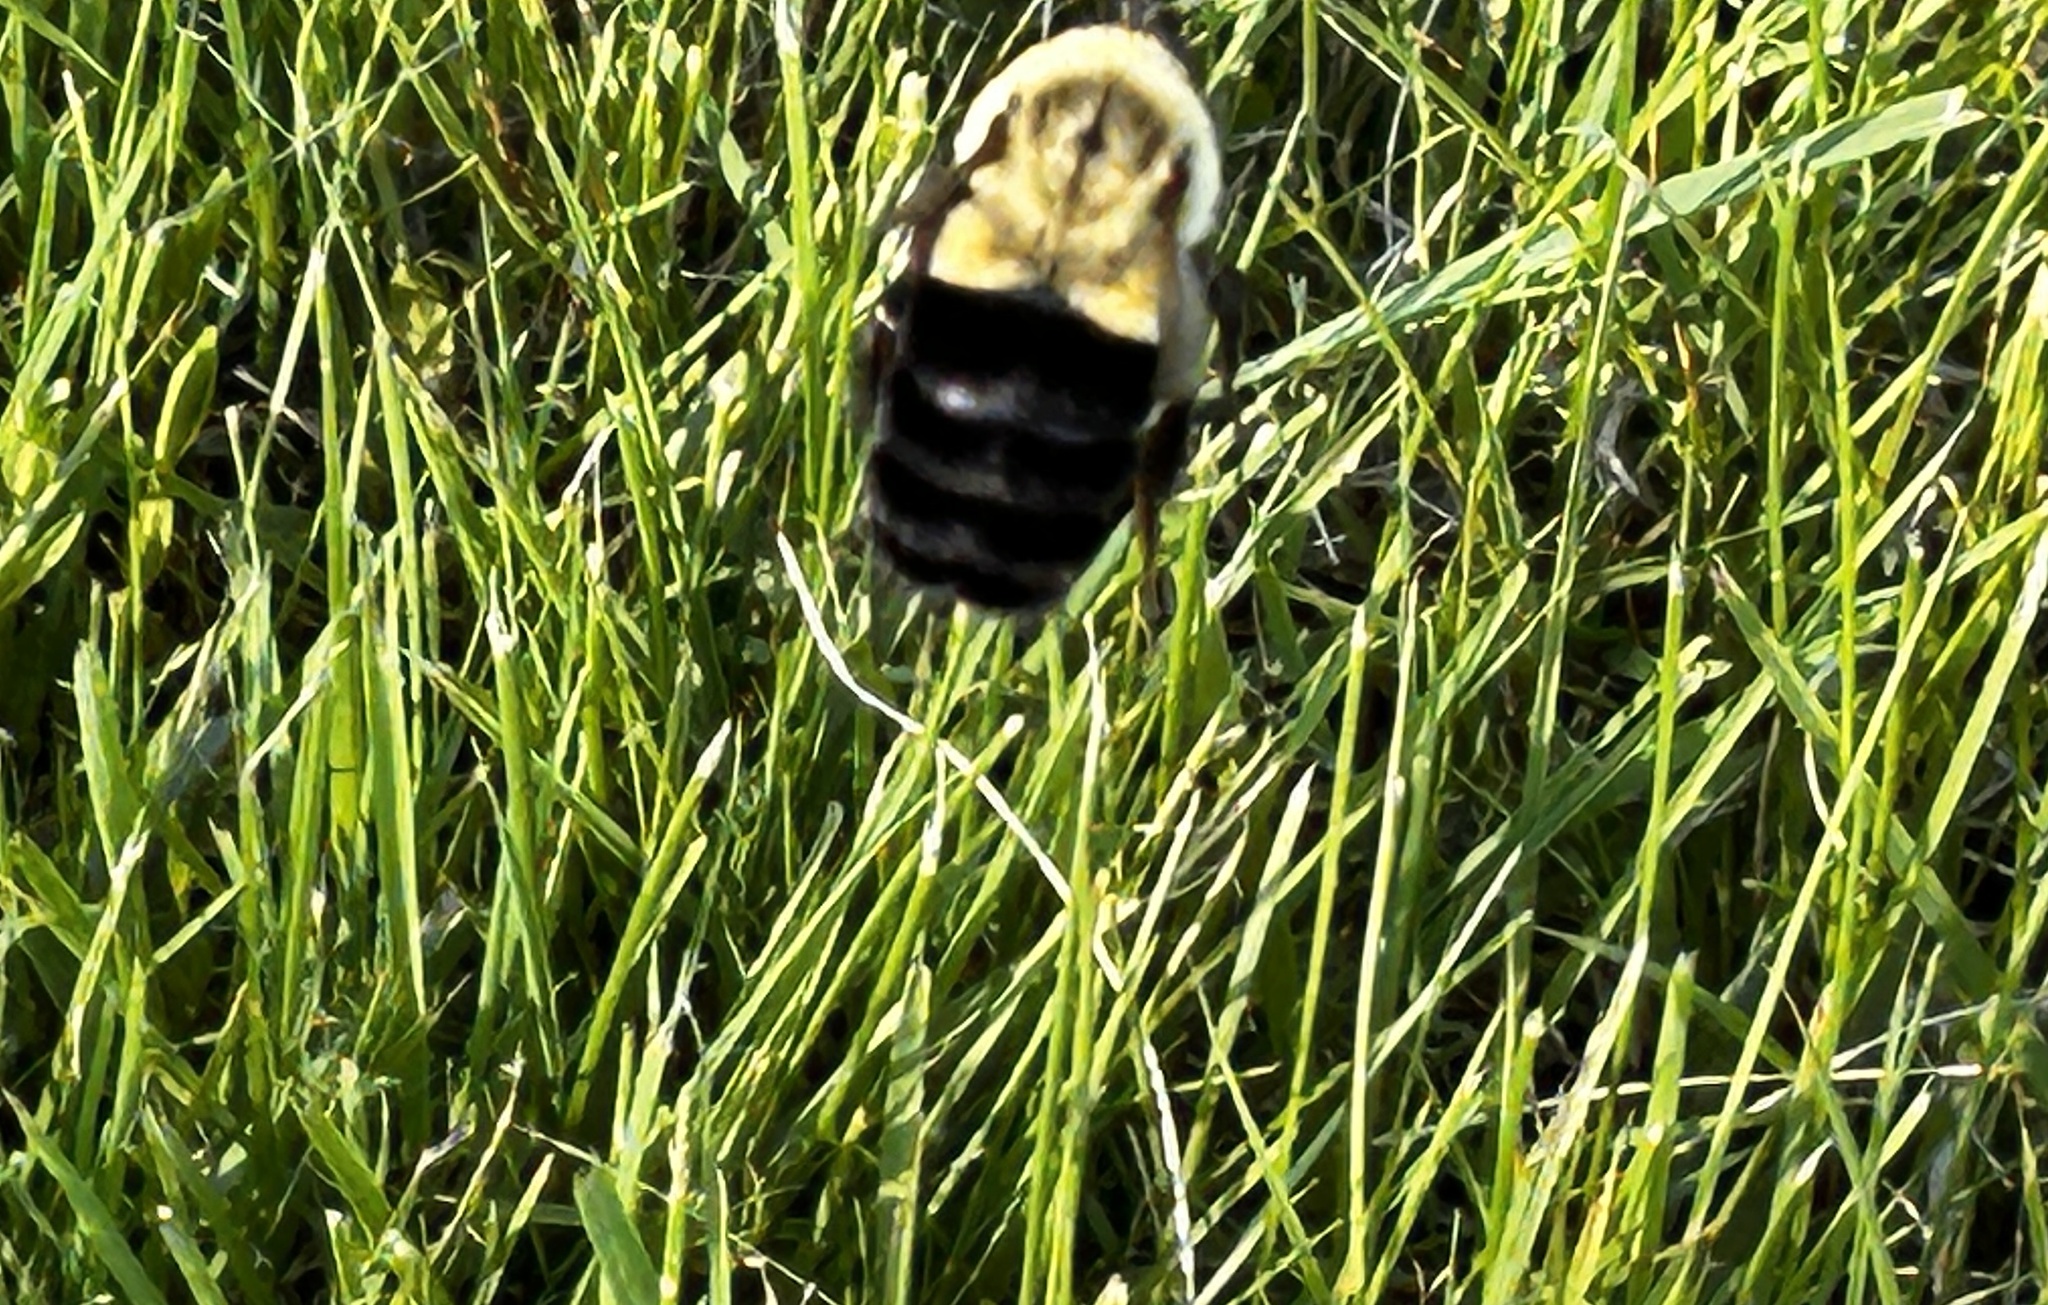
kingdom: Animalia
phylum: Arthropoda
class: Insecta
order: Hymenoptera
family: Apidae
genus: Bombus
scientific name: Bombus impatiens
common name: Common eastern bumble bee
